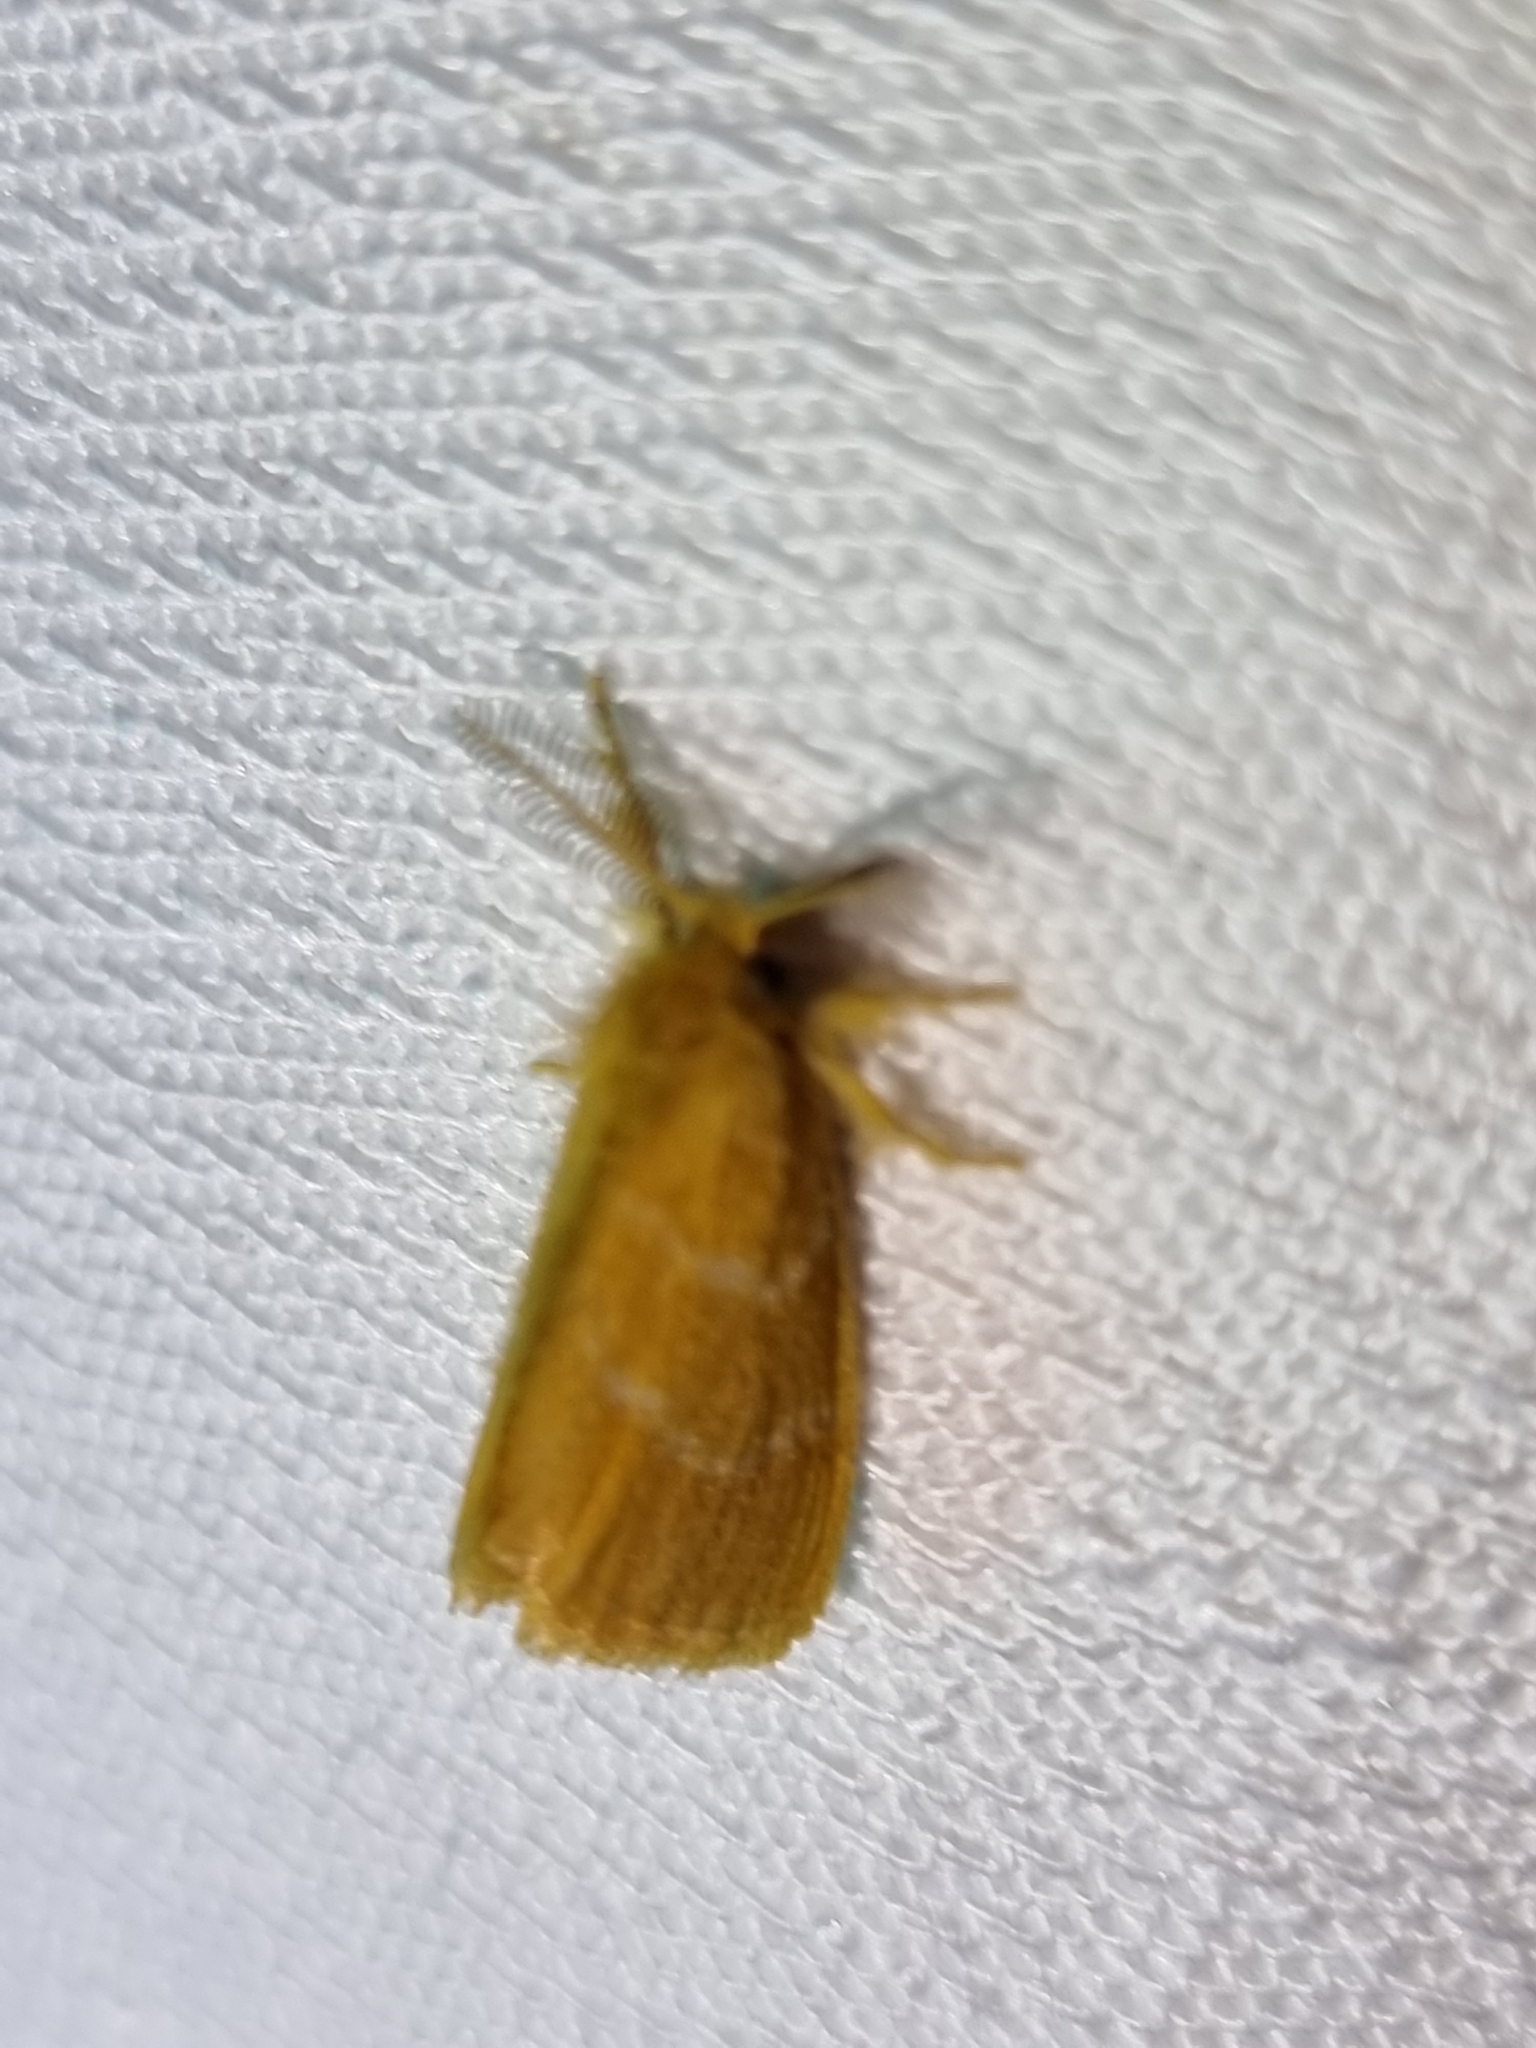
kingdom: Animalia
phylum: Arthropoda
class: Insecta
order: Lepidoptera
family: Erebidae
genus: Euproctis
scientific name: Euproctis lucifuga
